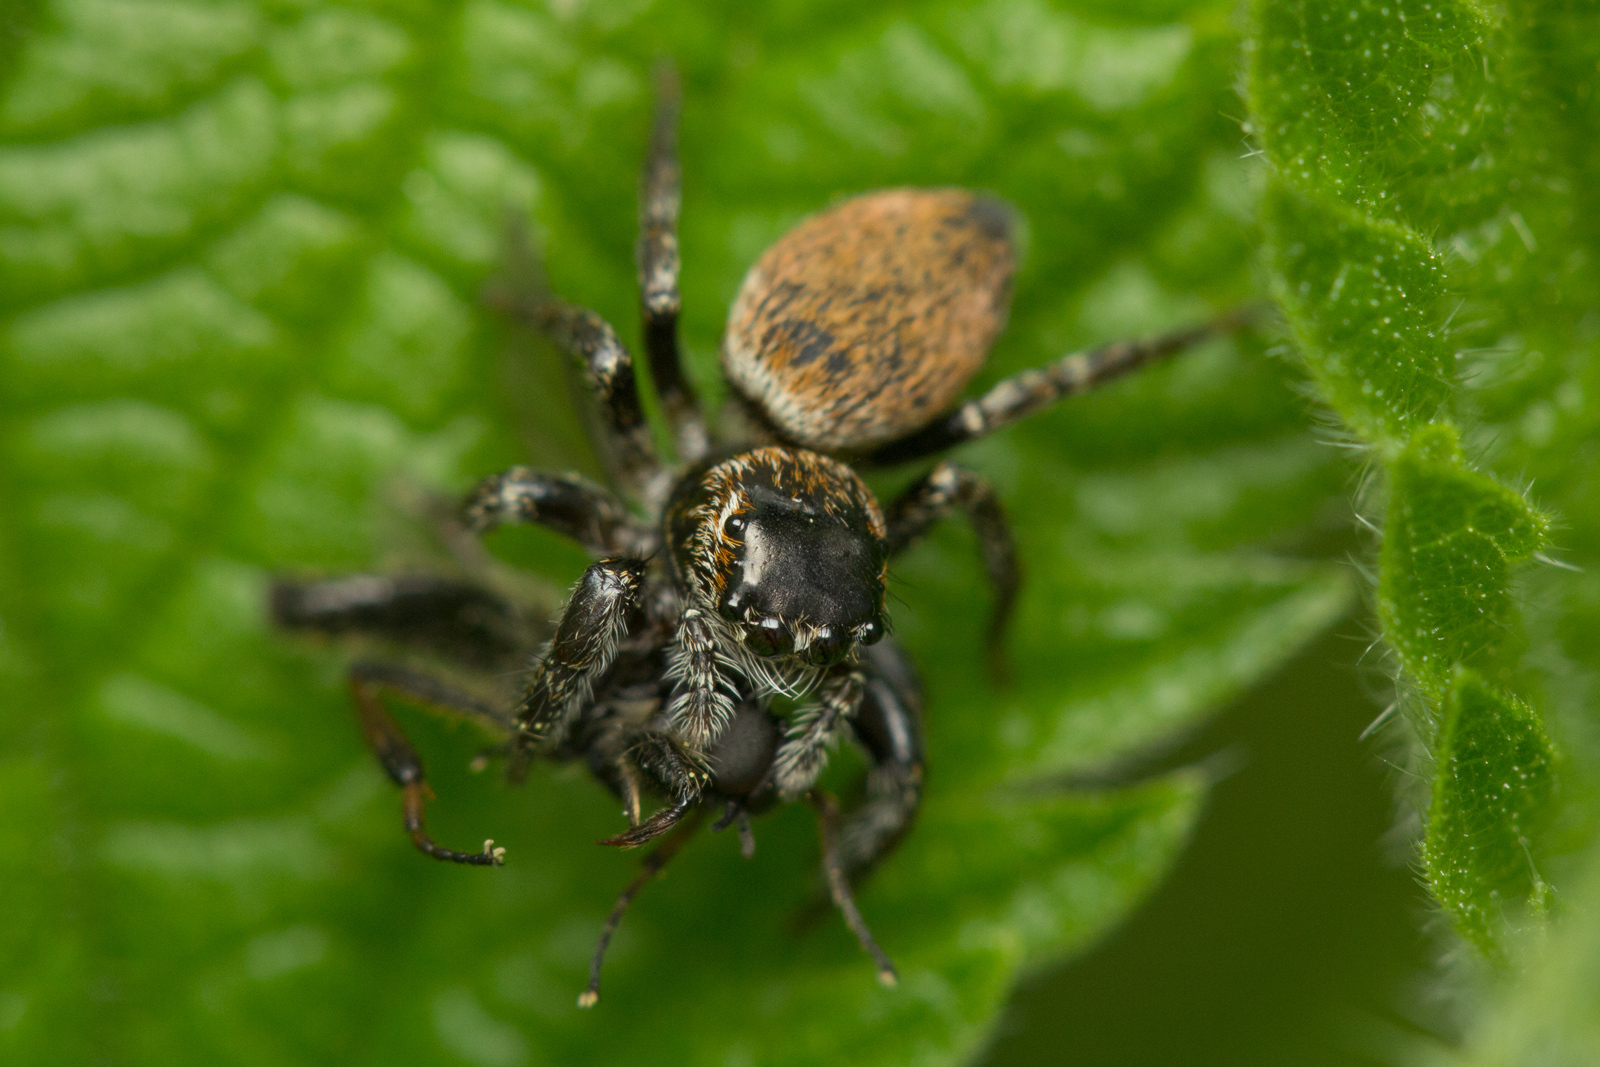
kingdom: Animalia
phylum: Arthropoda
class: Arachnida
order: Araneae
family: Salticidae
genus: Evarcha
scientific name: Evarcha falcata
